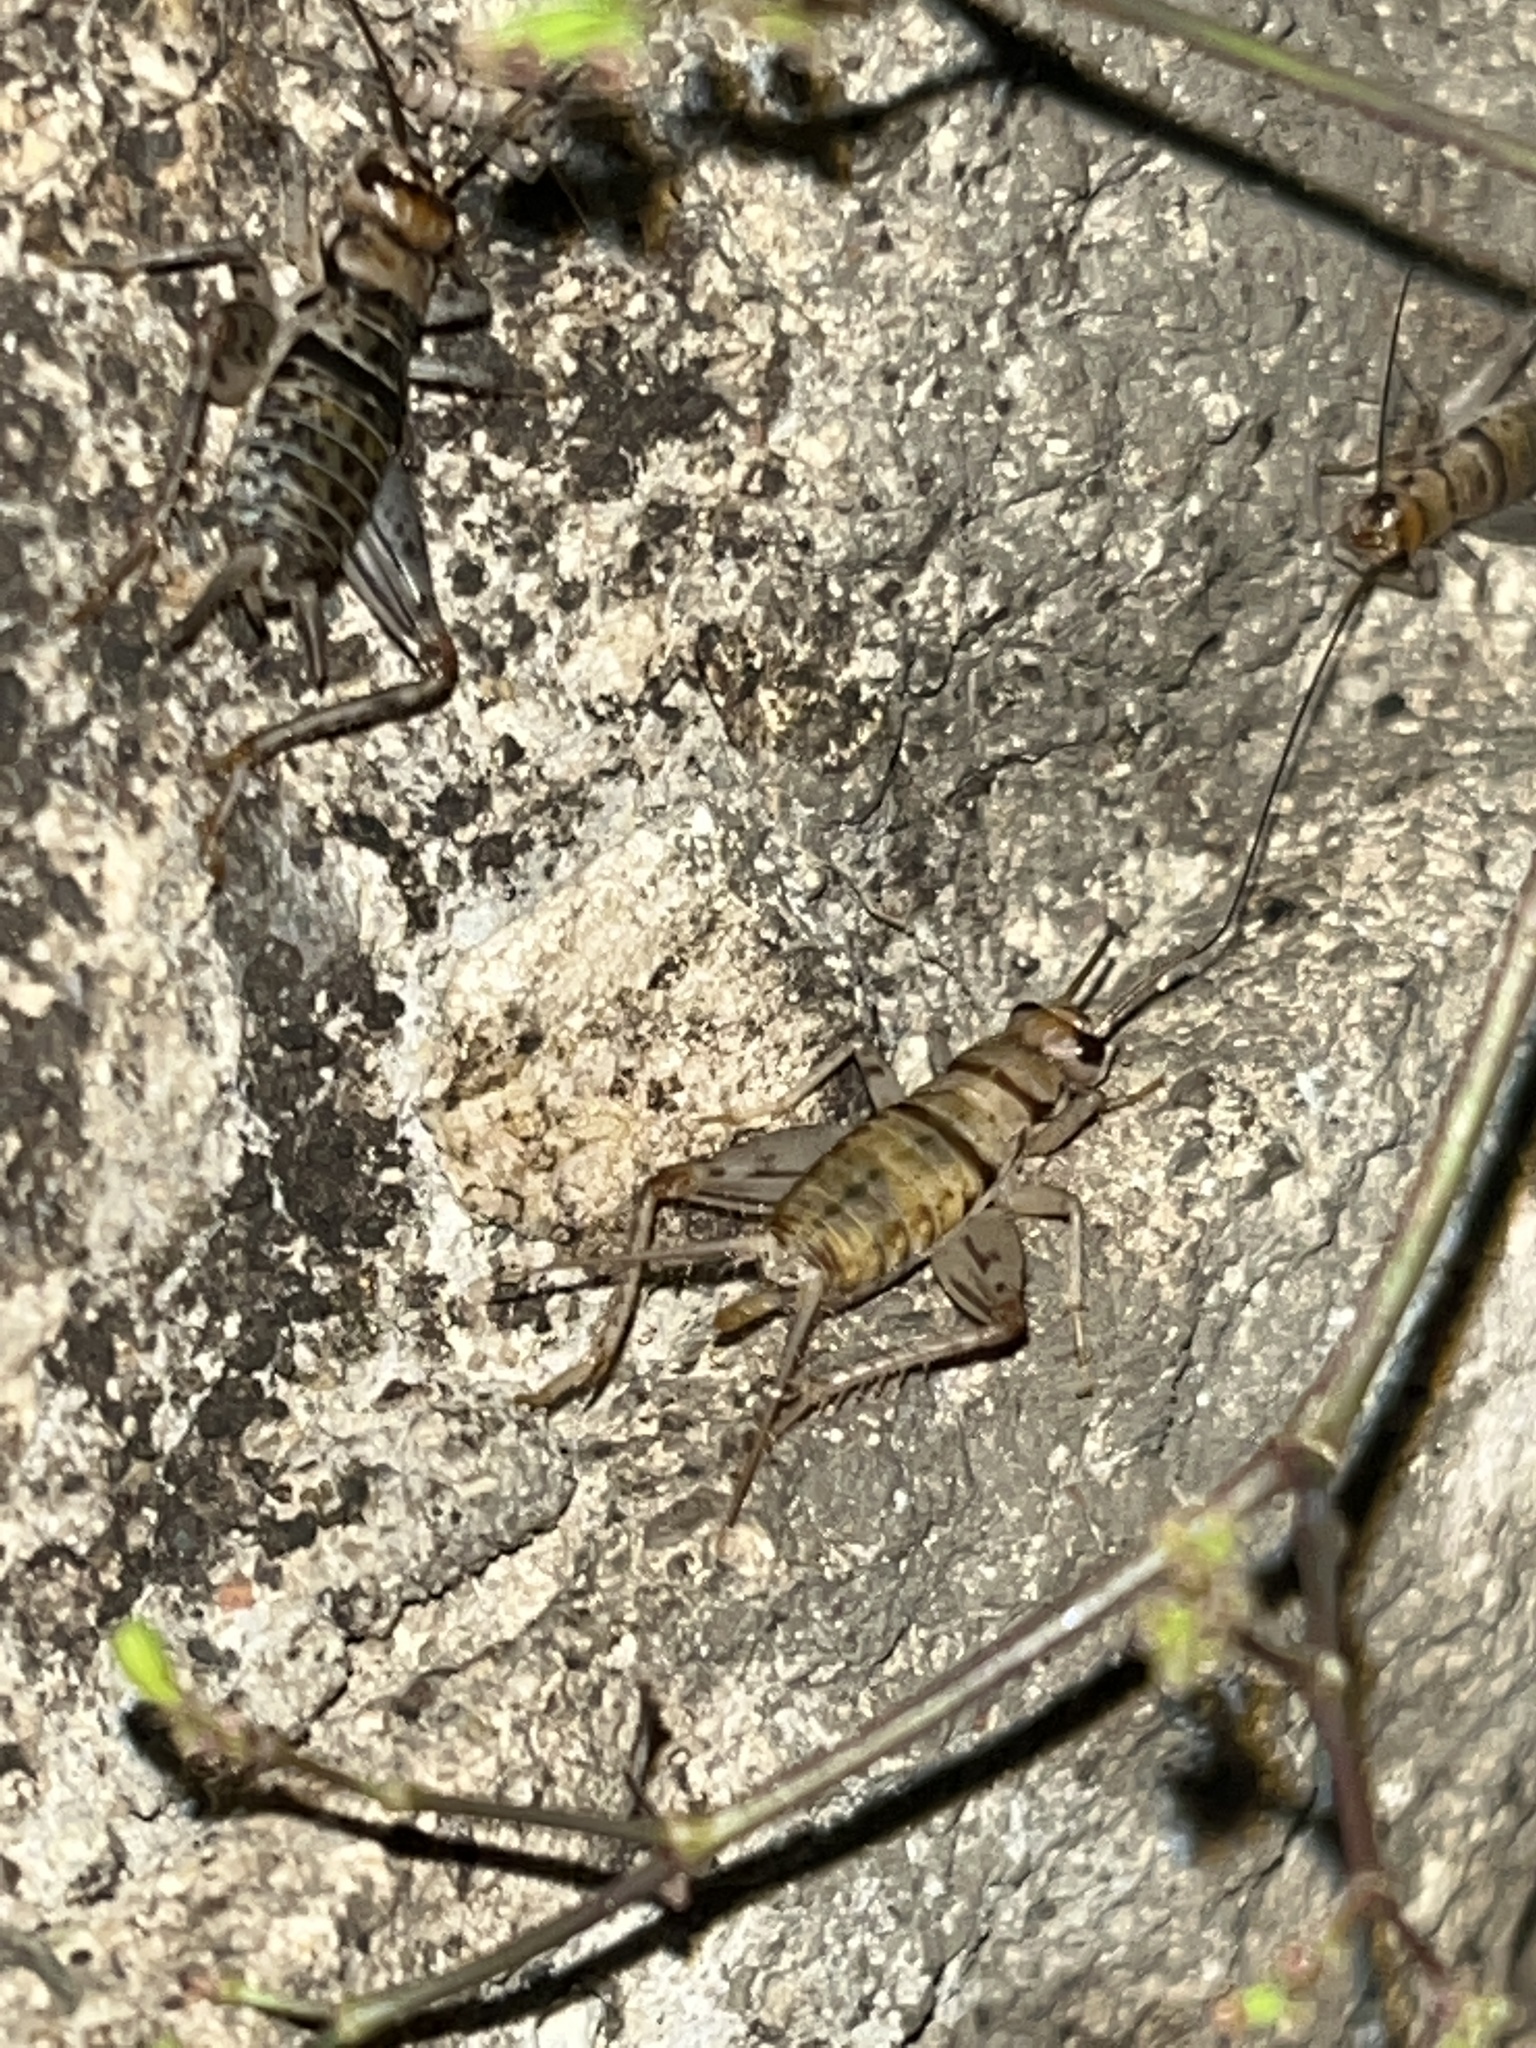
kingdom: Animalia
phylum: Arthropoda
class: Insecta
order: Orthoptera
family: Gryllidae
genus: Gryllodes
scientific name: Gryllodes sigillatus
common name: Tropical house cricket
